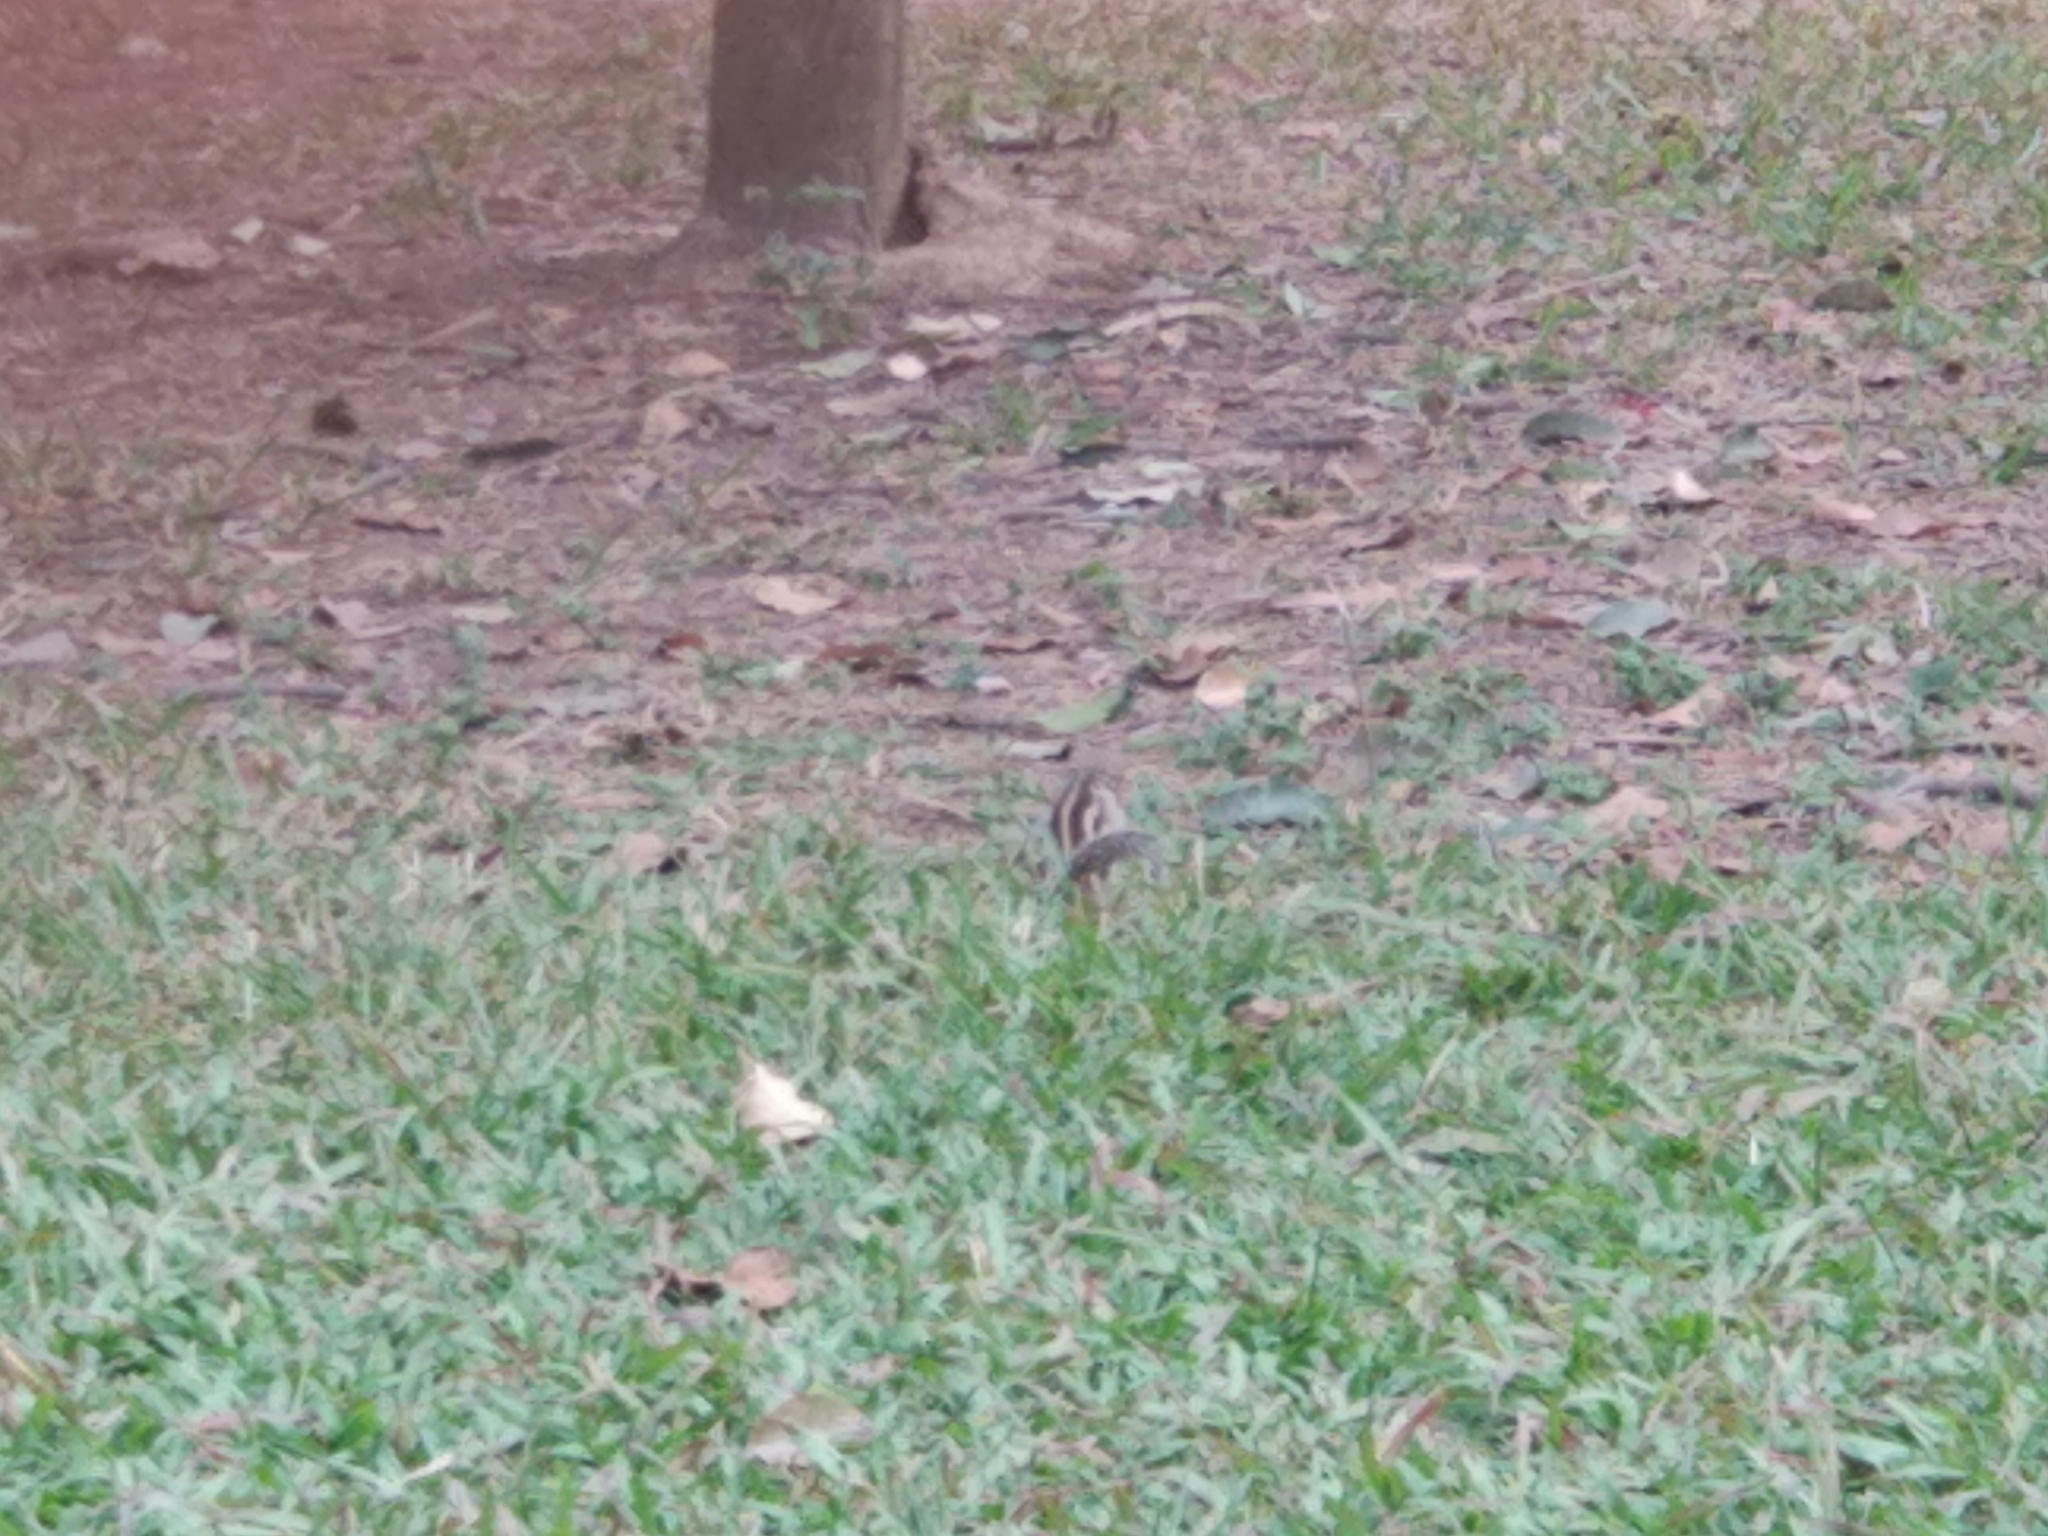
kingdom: Animalia
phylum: Chordata
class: Mammalia
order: Rodentia
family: Sciuridae
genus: Funambulus
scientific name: Funambulus pennantii
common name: Northern palm squirrel
